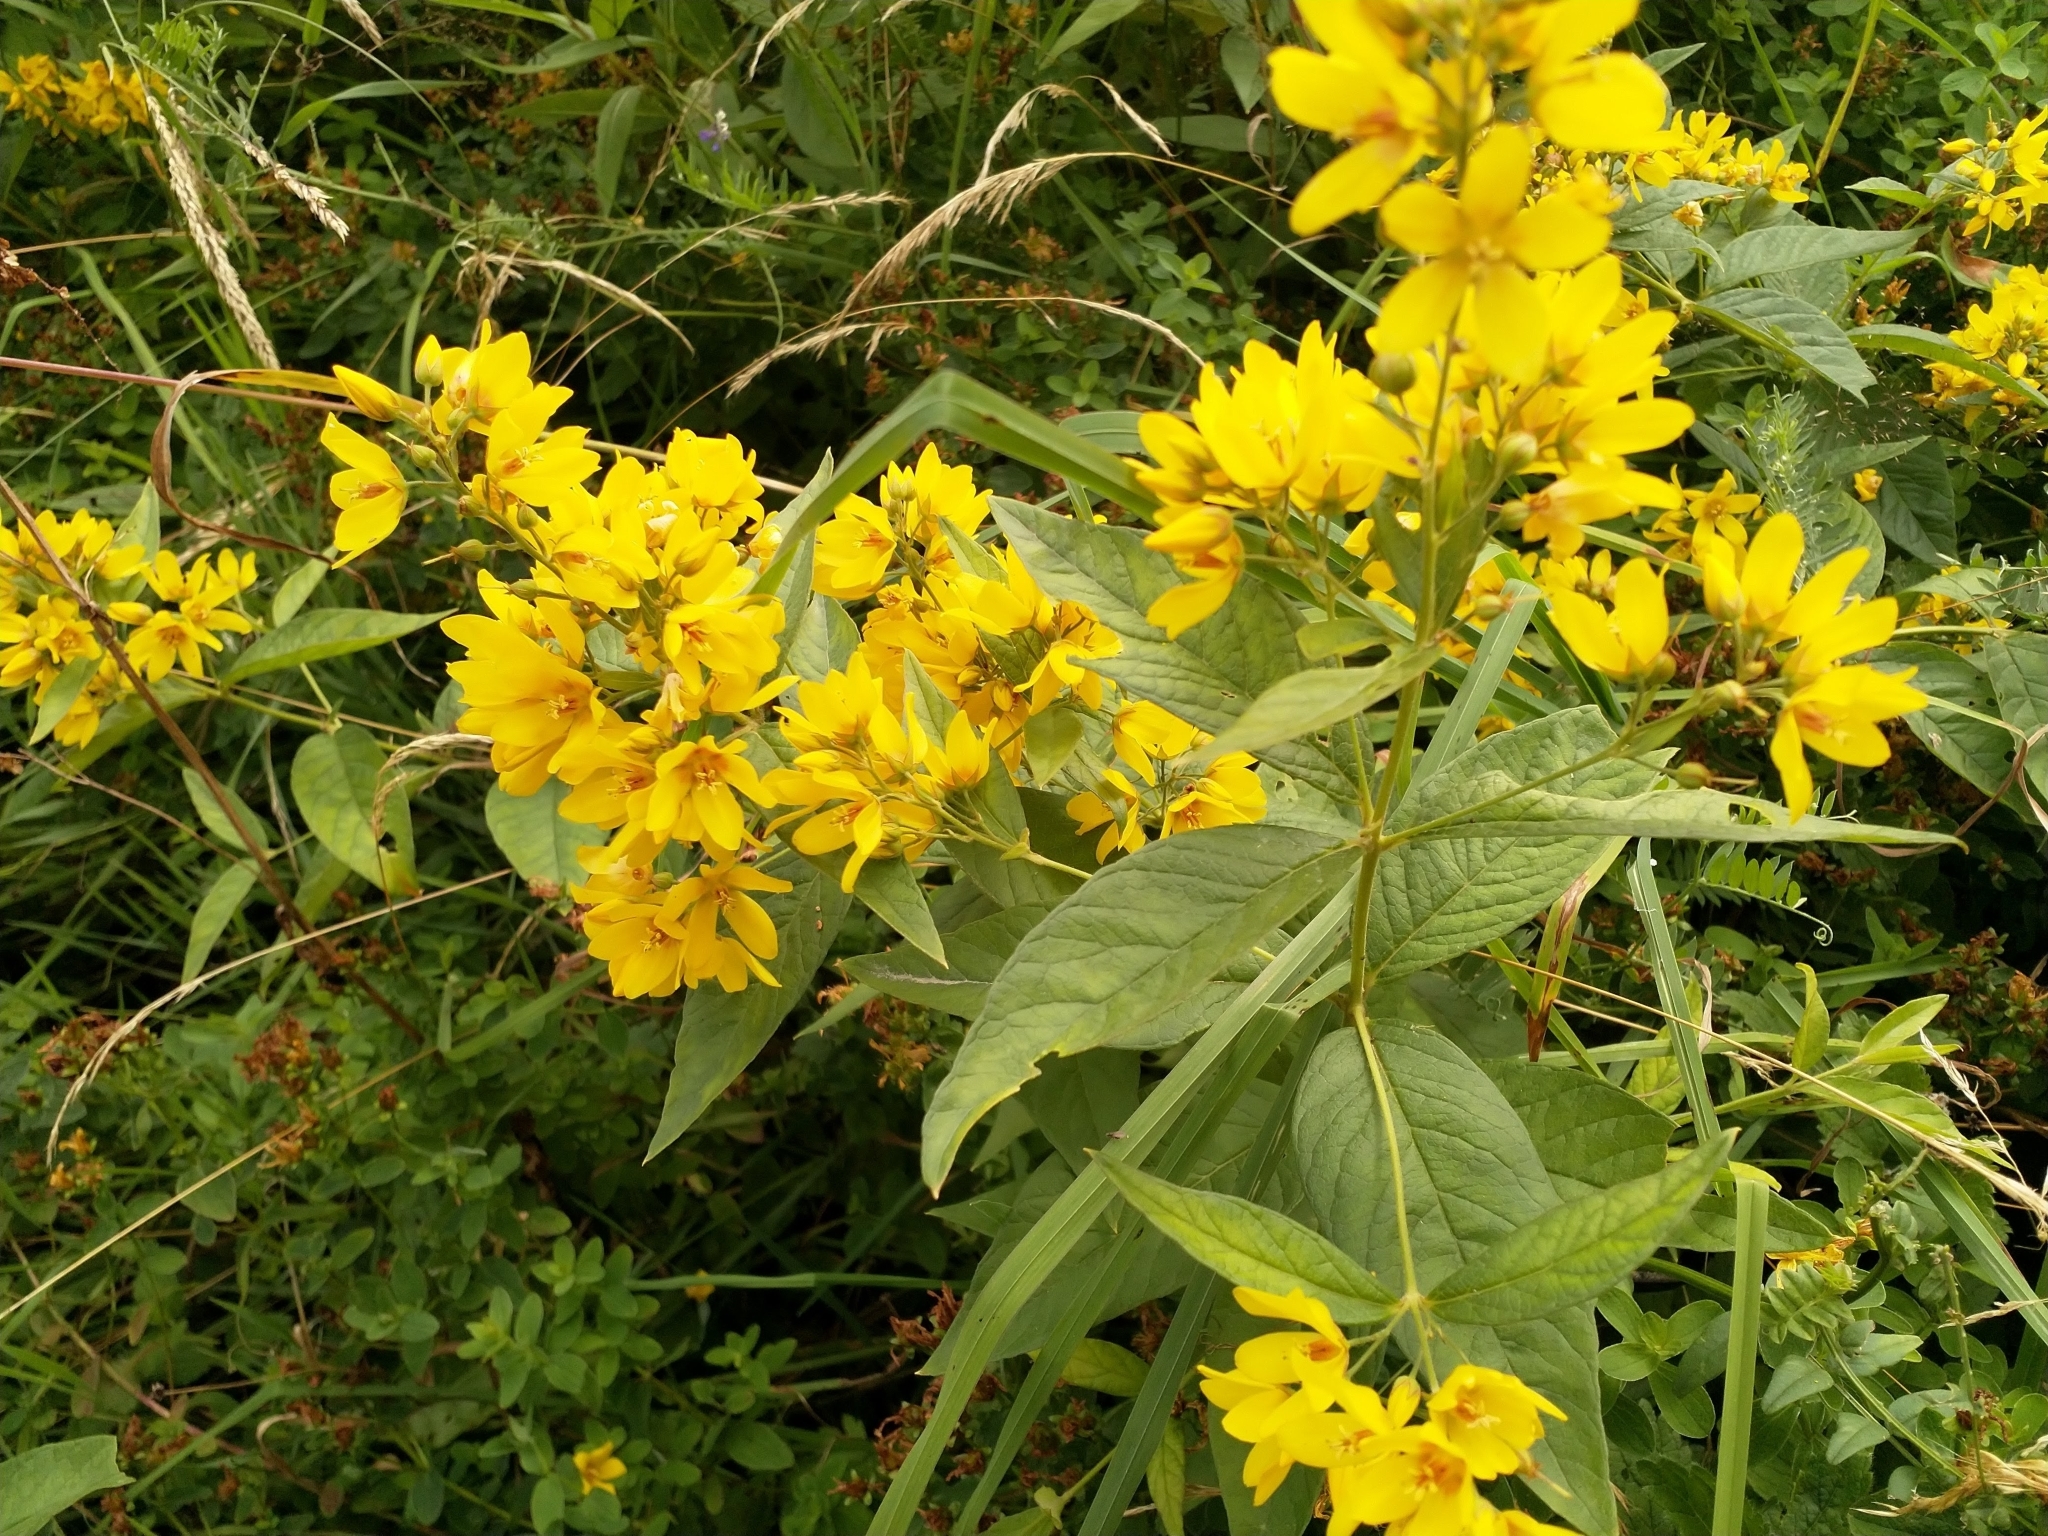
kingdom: Plantae
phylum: Tracheophyta
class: Magnoliopsida
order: Ericales
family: Primulaceae
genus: Lysimachia
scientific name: Lysimachia vulgaris
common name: Yellow loosestrife
